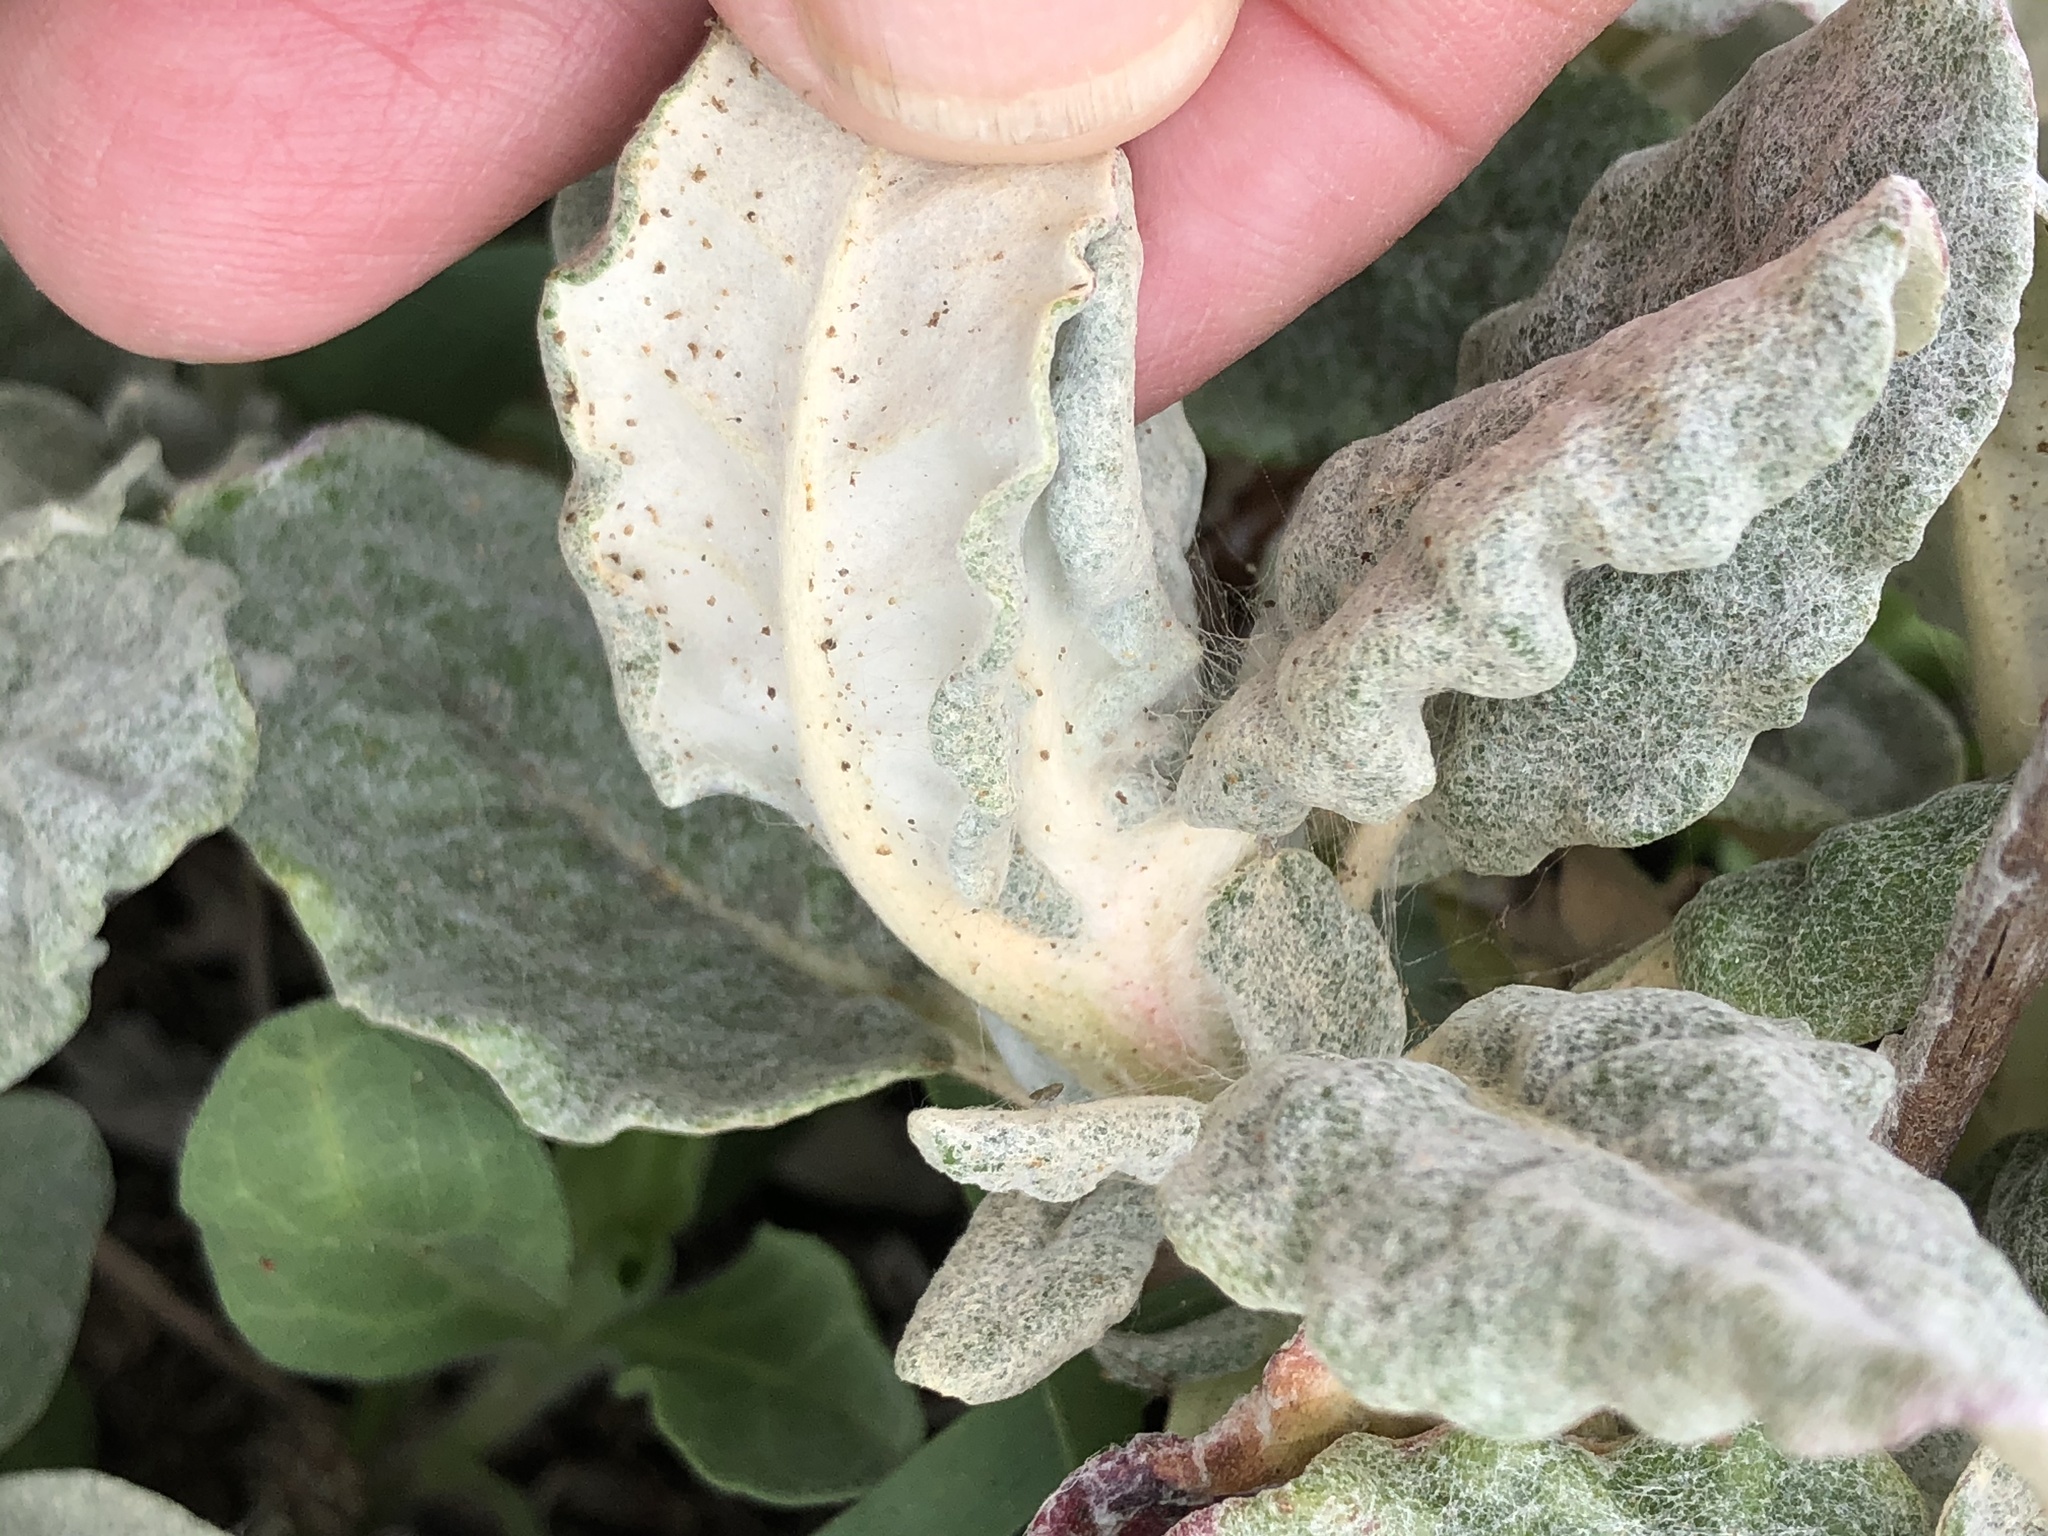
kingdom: Plantae
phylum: Tracheophyta
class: Magnoliopsida
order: Caryophyllales
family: Polygonaceae
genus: Eriogonum
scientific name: Eriogonum latifolium
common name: Seaside wild buckwheat
